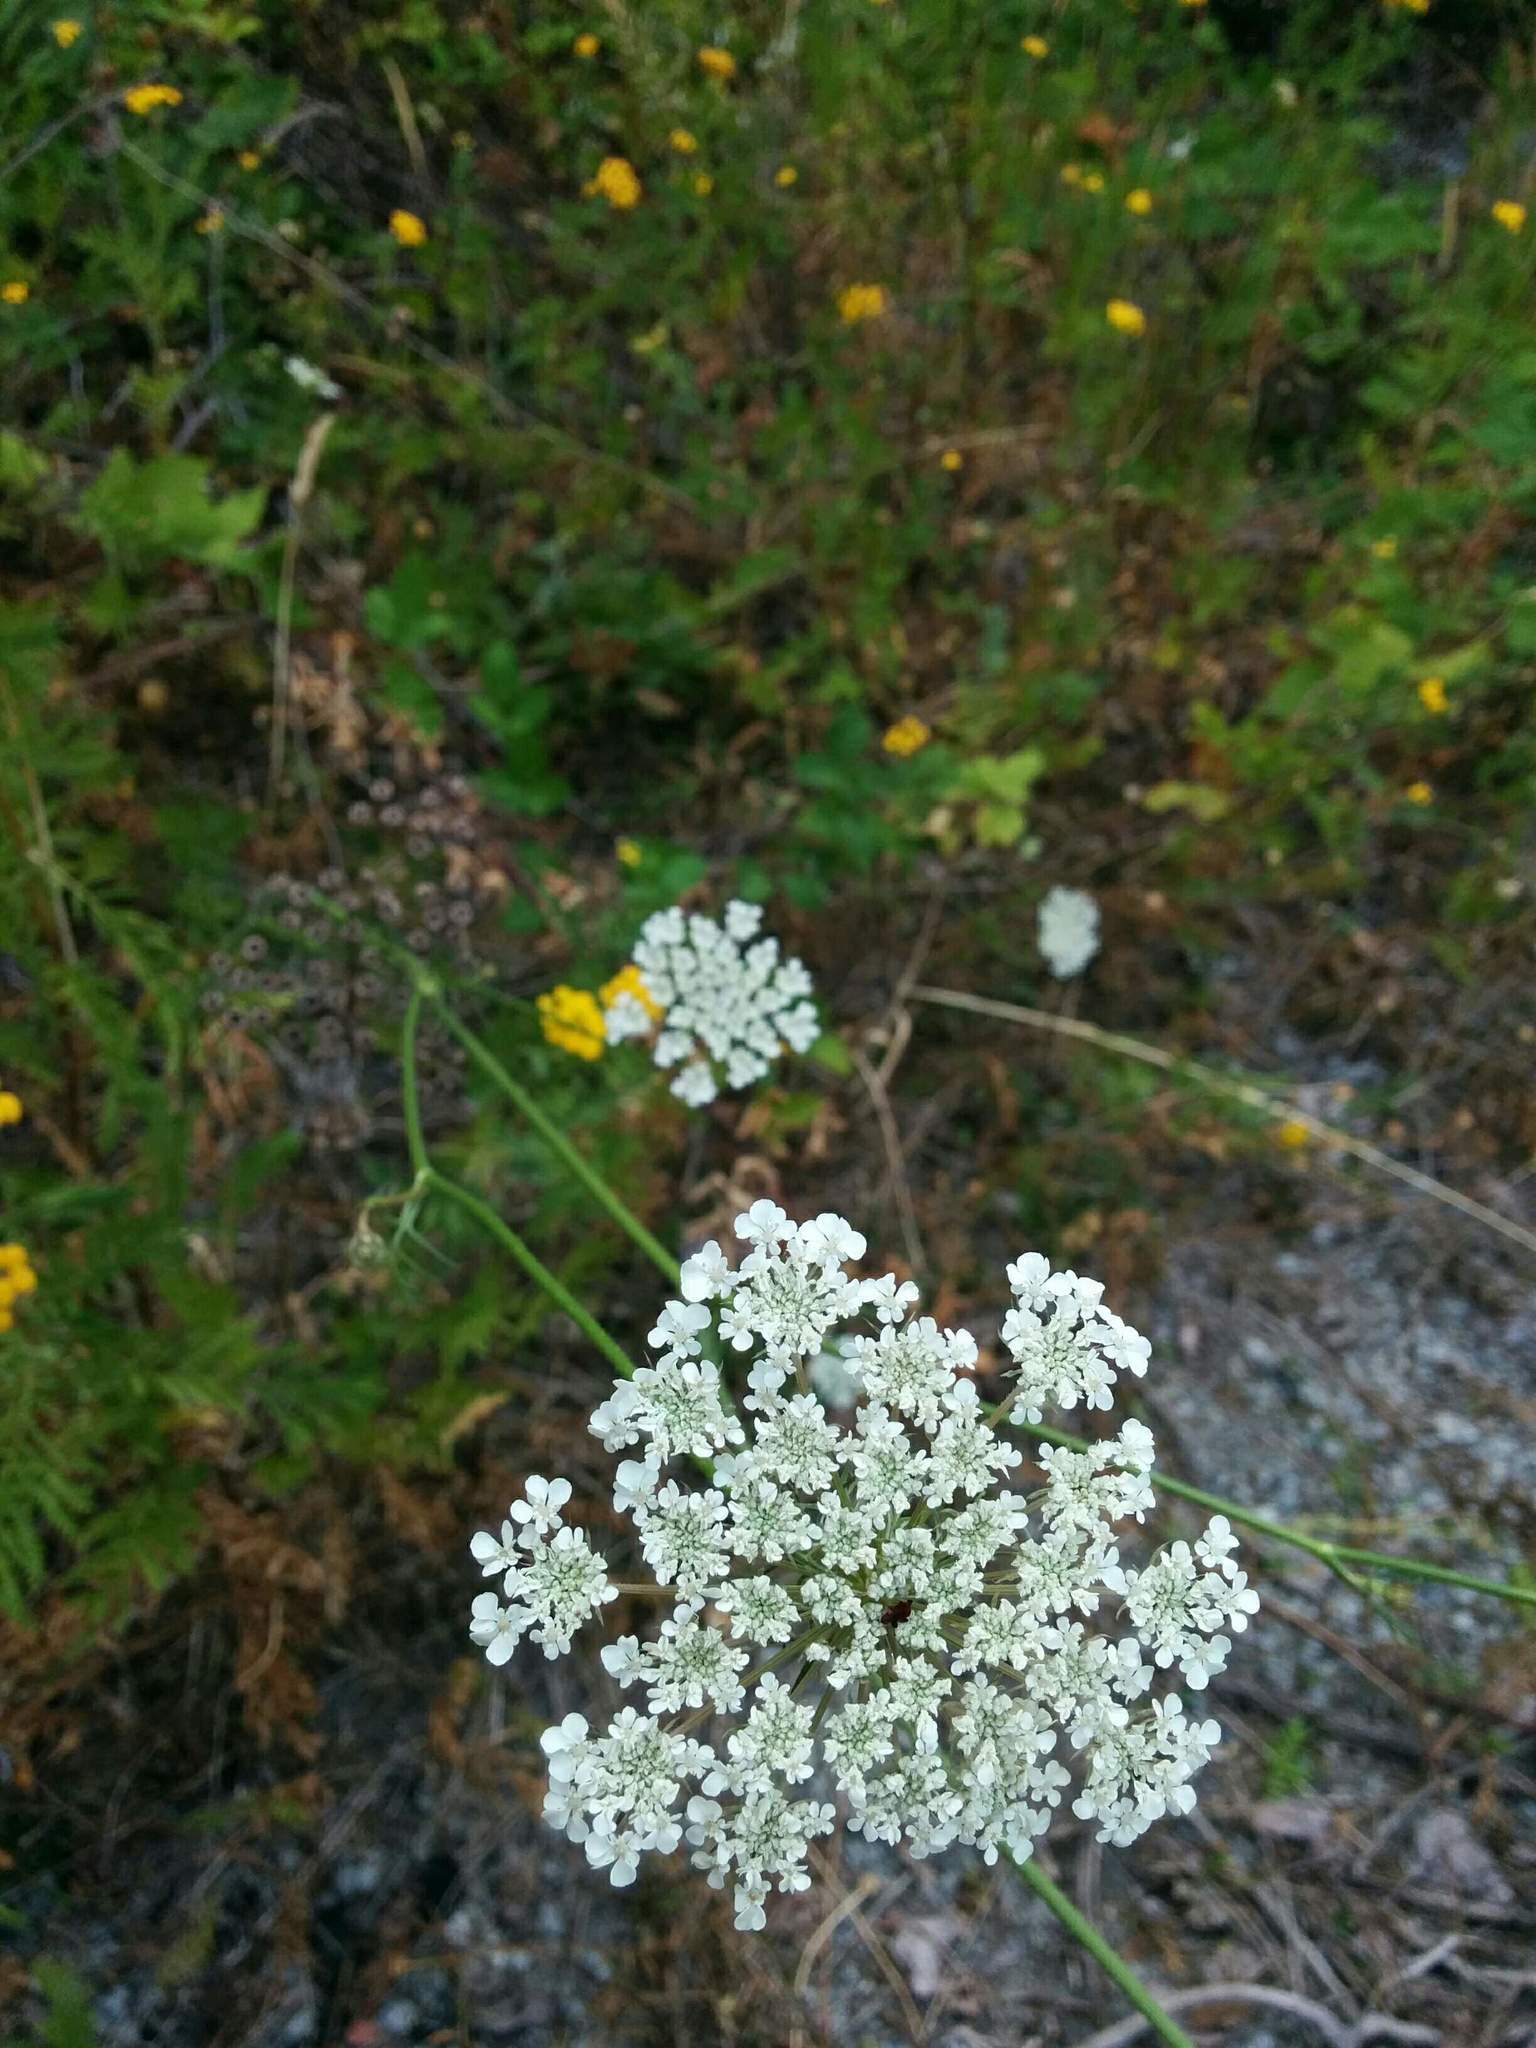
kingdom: Plantae
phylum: Tracheophyta
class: Magnoliopsida
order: Apiales
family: Apiaceae
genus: Daucus
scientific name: Daucus carota
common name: Wild carrot
